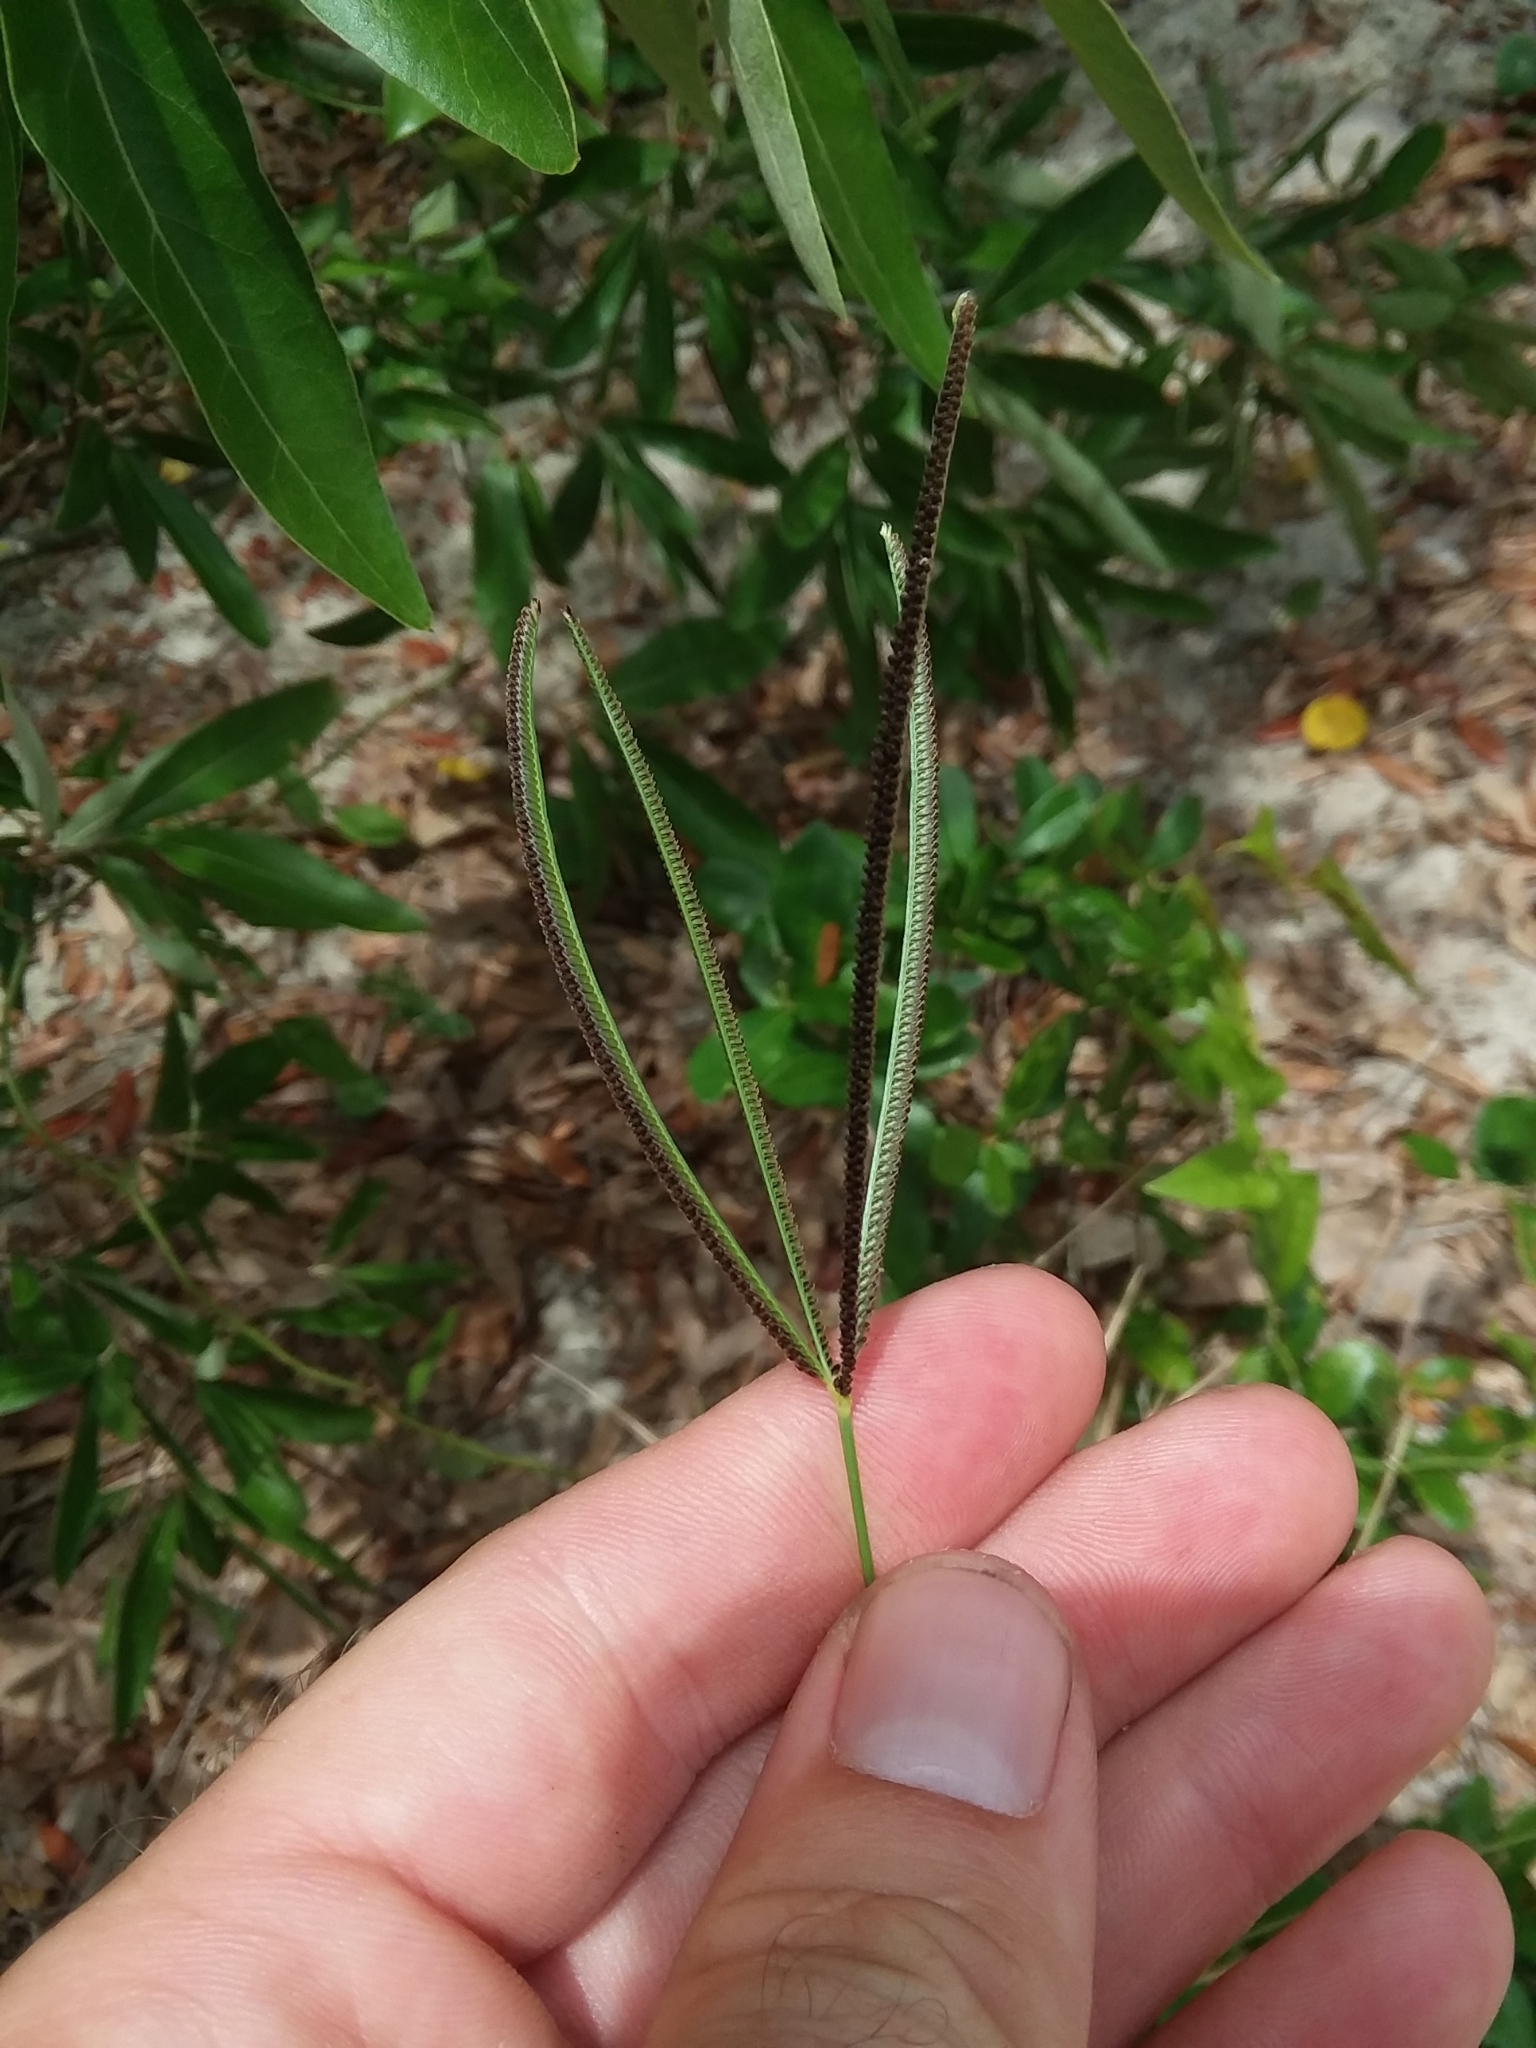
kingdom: Plantae
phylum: Tracheophyta
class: Liliopsida
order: Poales
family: Poaceae
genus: Eustachys
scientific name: Eustachys petraea
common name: Pinewoods fingergrass
